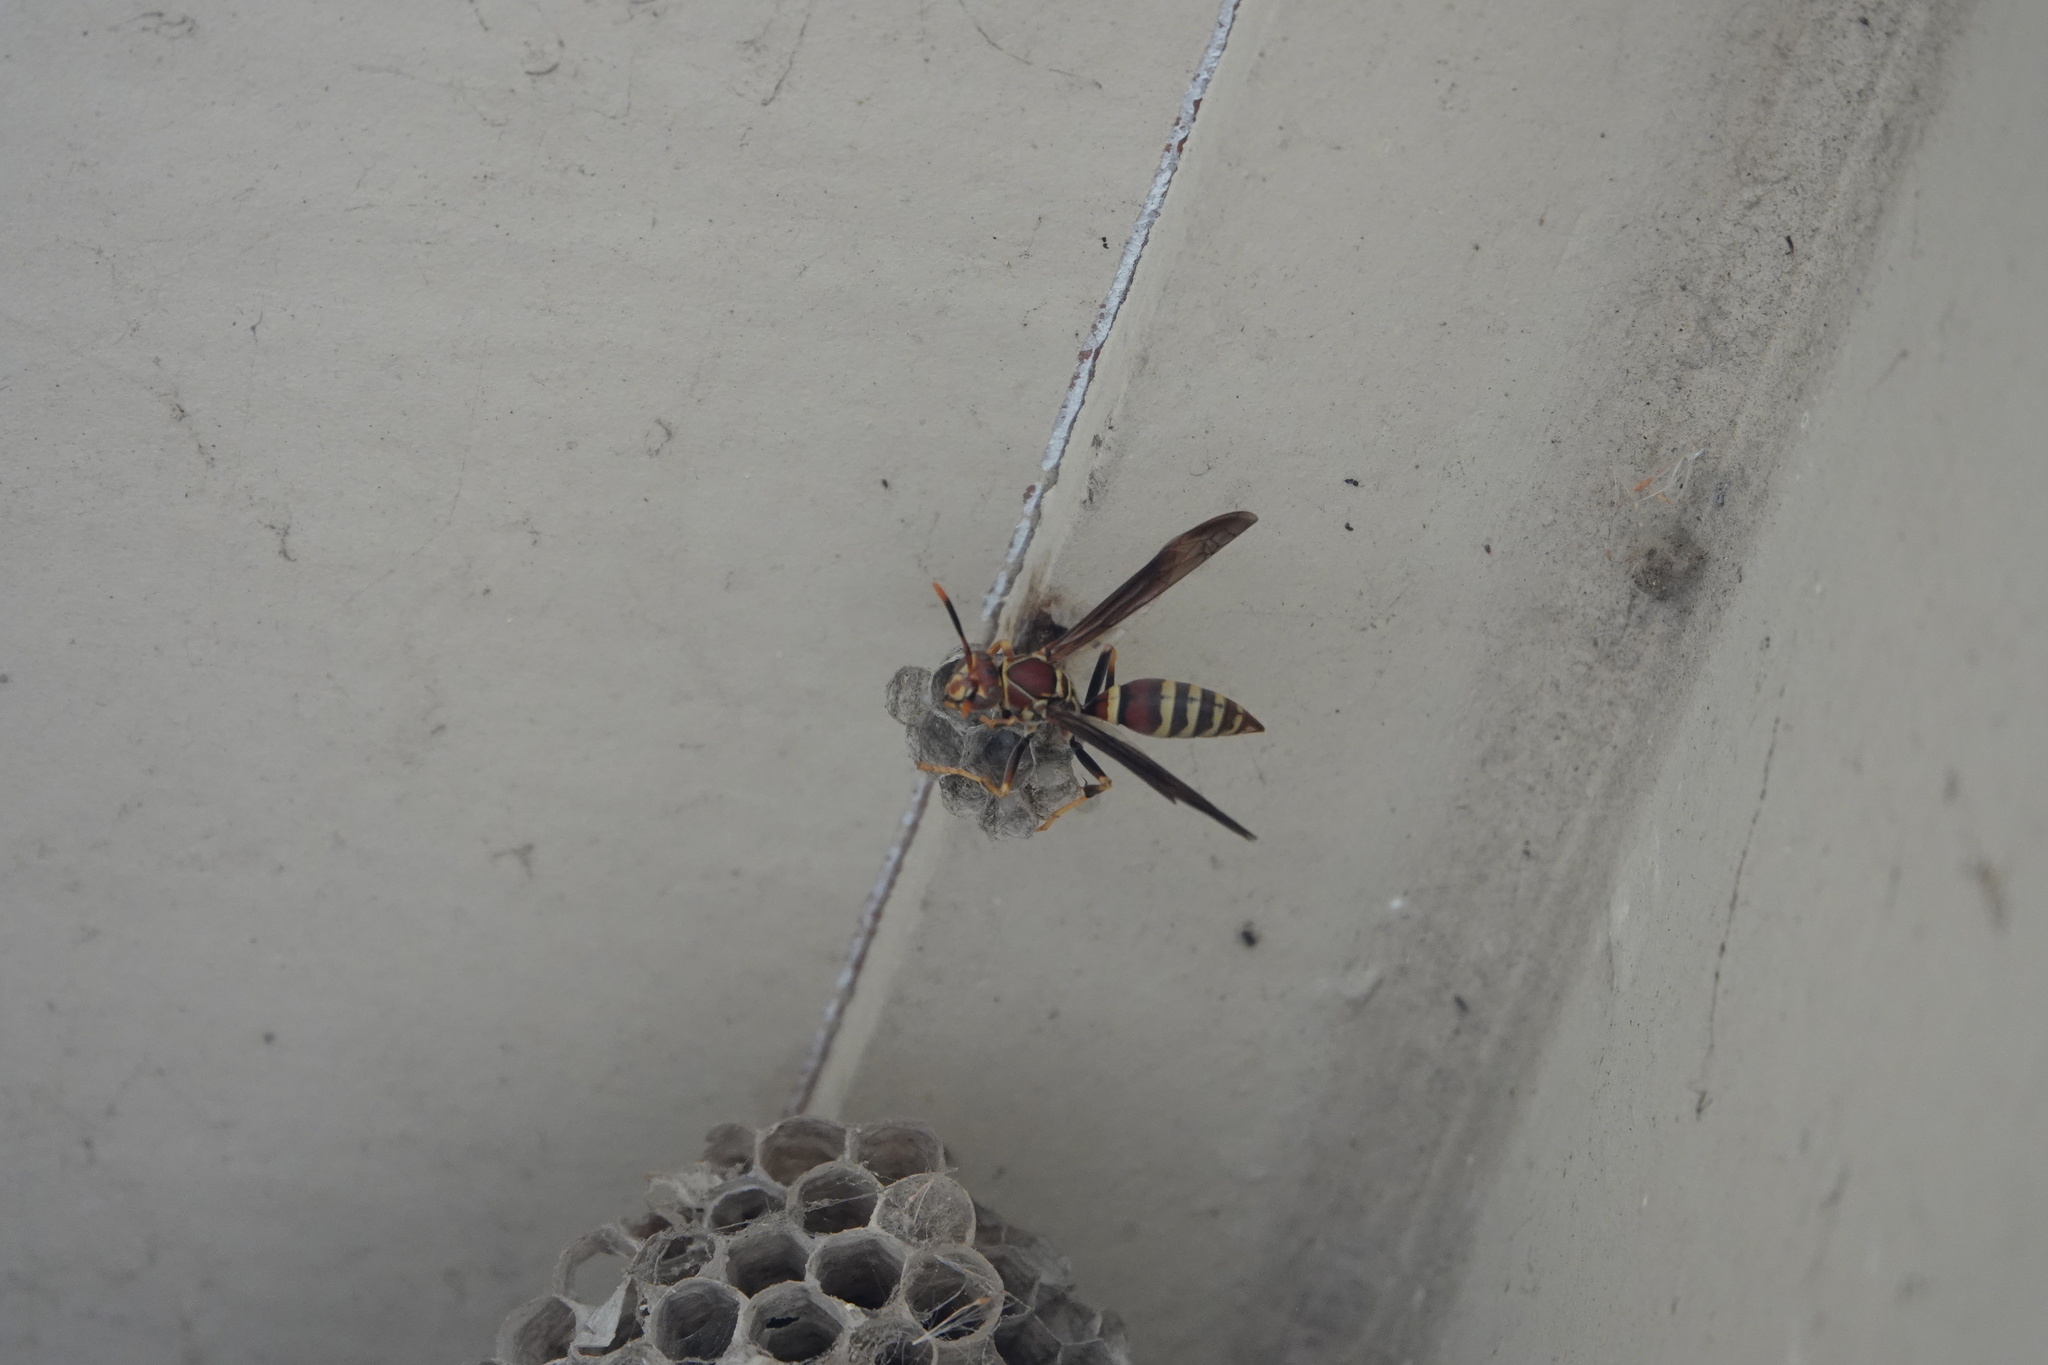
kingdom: Animalia
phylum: Arthropoda
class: Insecta
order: Hymenoptera
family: Eumenidae
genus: Polistes
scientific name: Polistes exclamans
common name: Paper wasp
